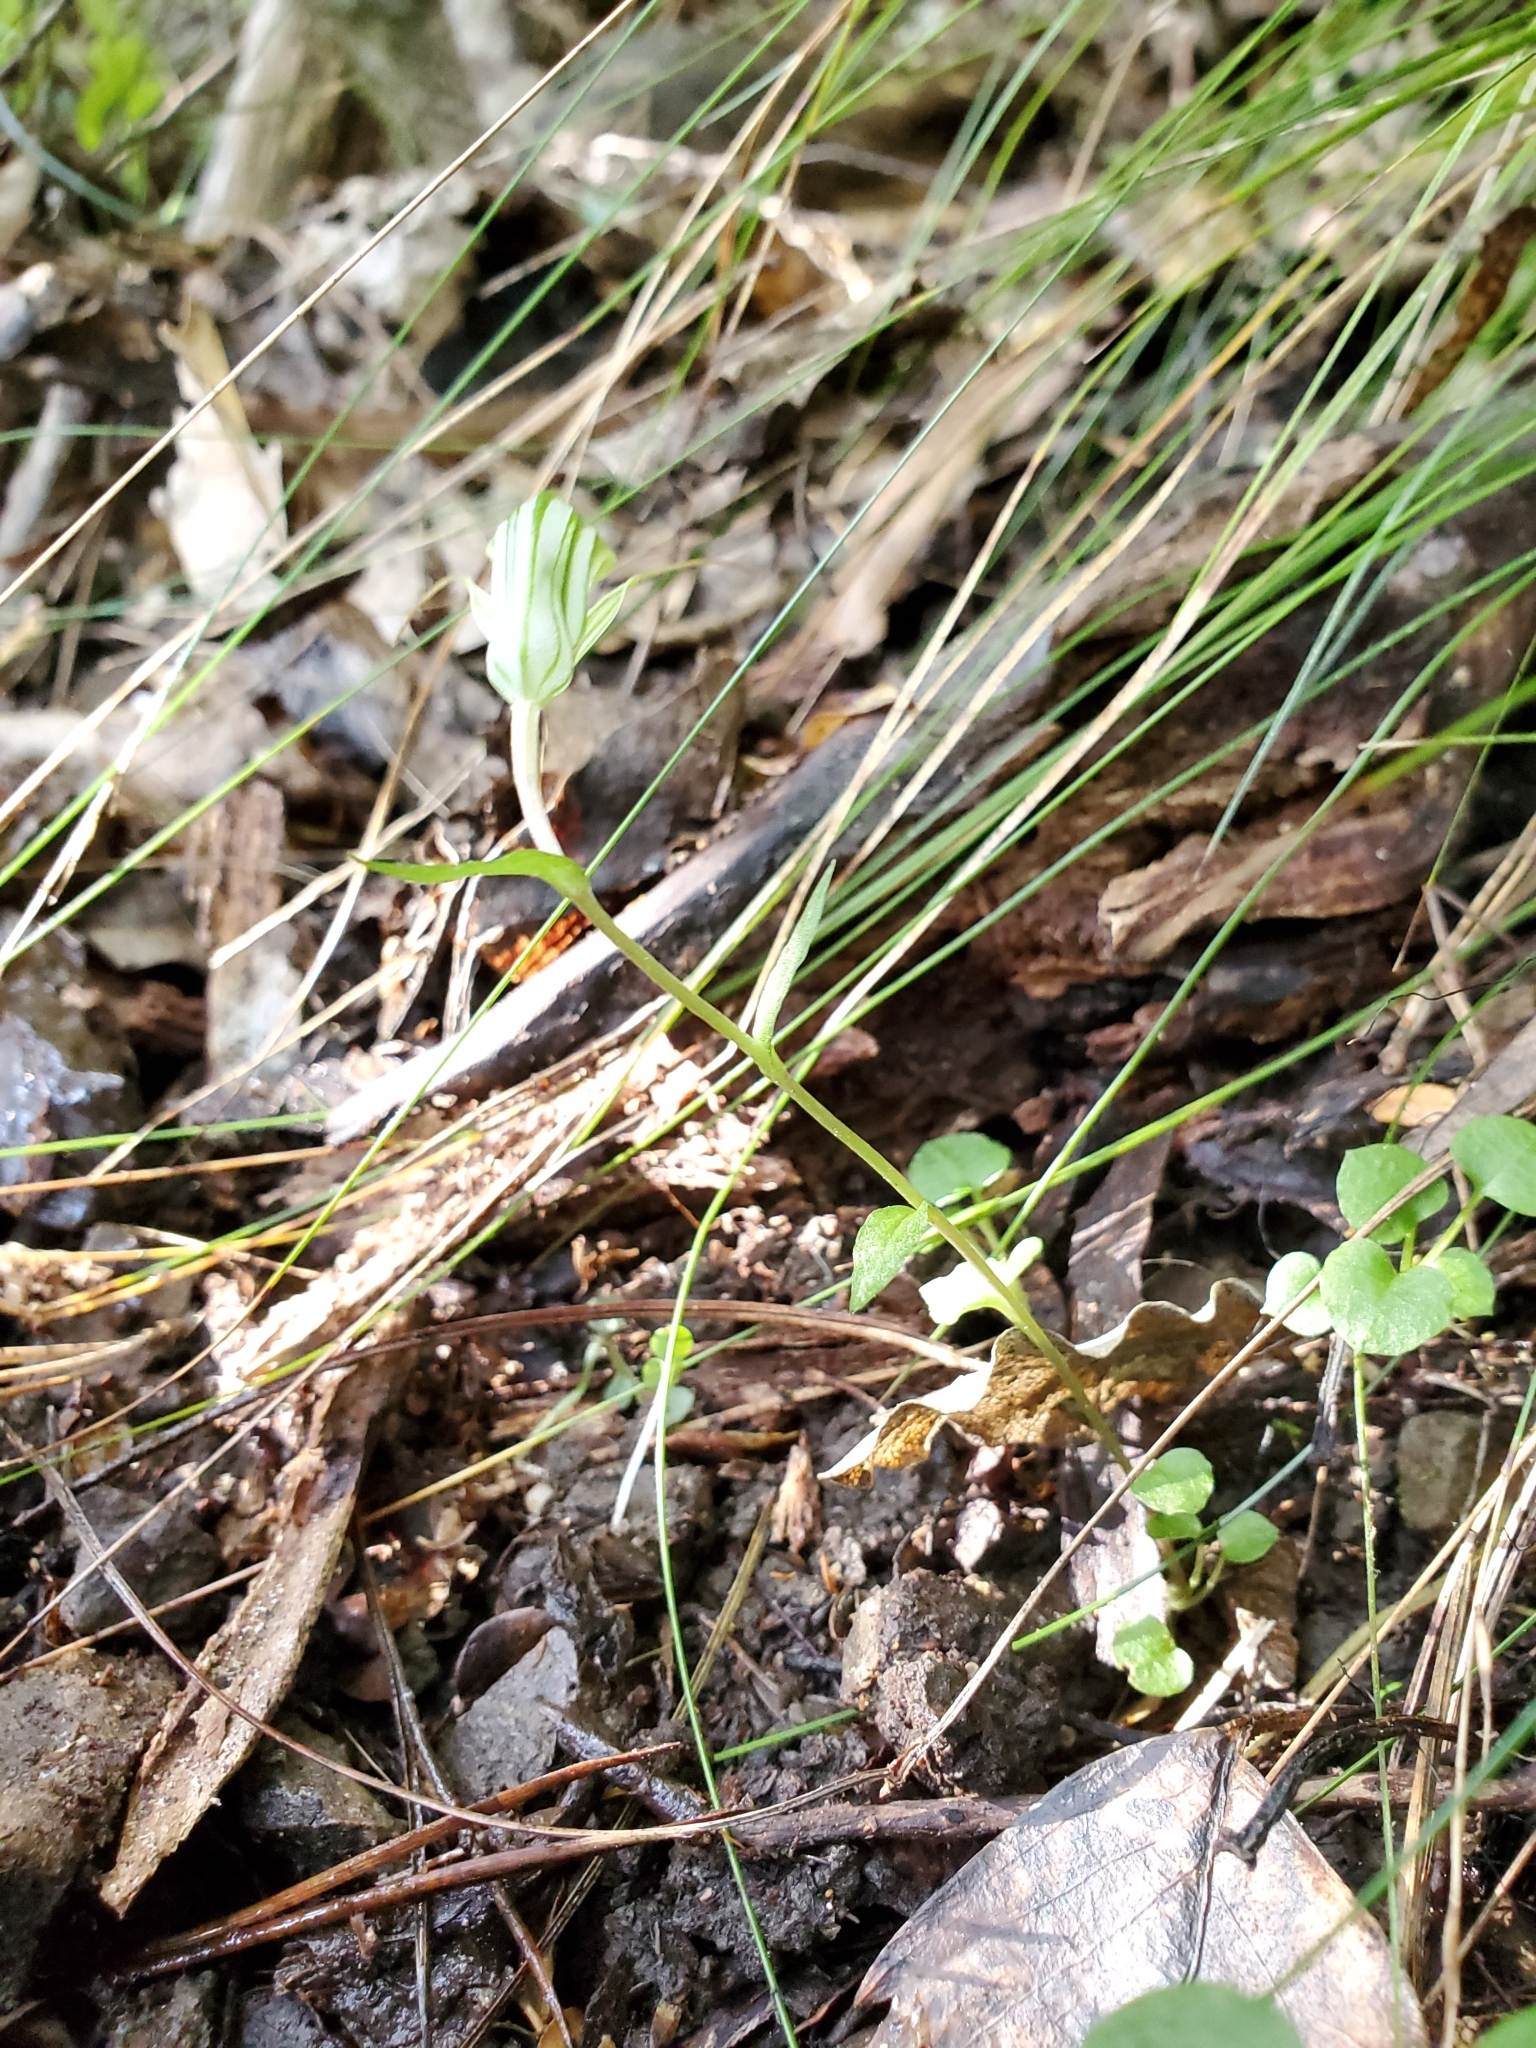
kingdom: Plantae
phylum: Tracheophyta
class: Liliopsida
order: Asparagales
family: Orchidaceae
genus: Pterostylis
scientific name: Pterostylis alobula
